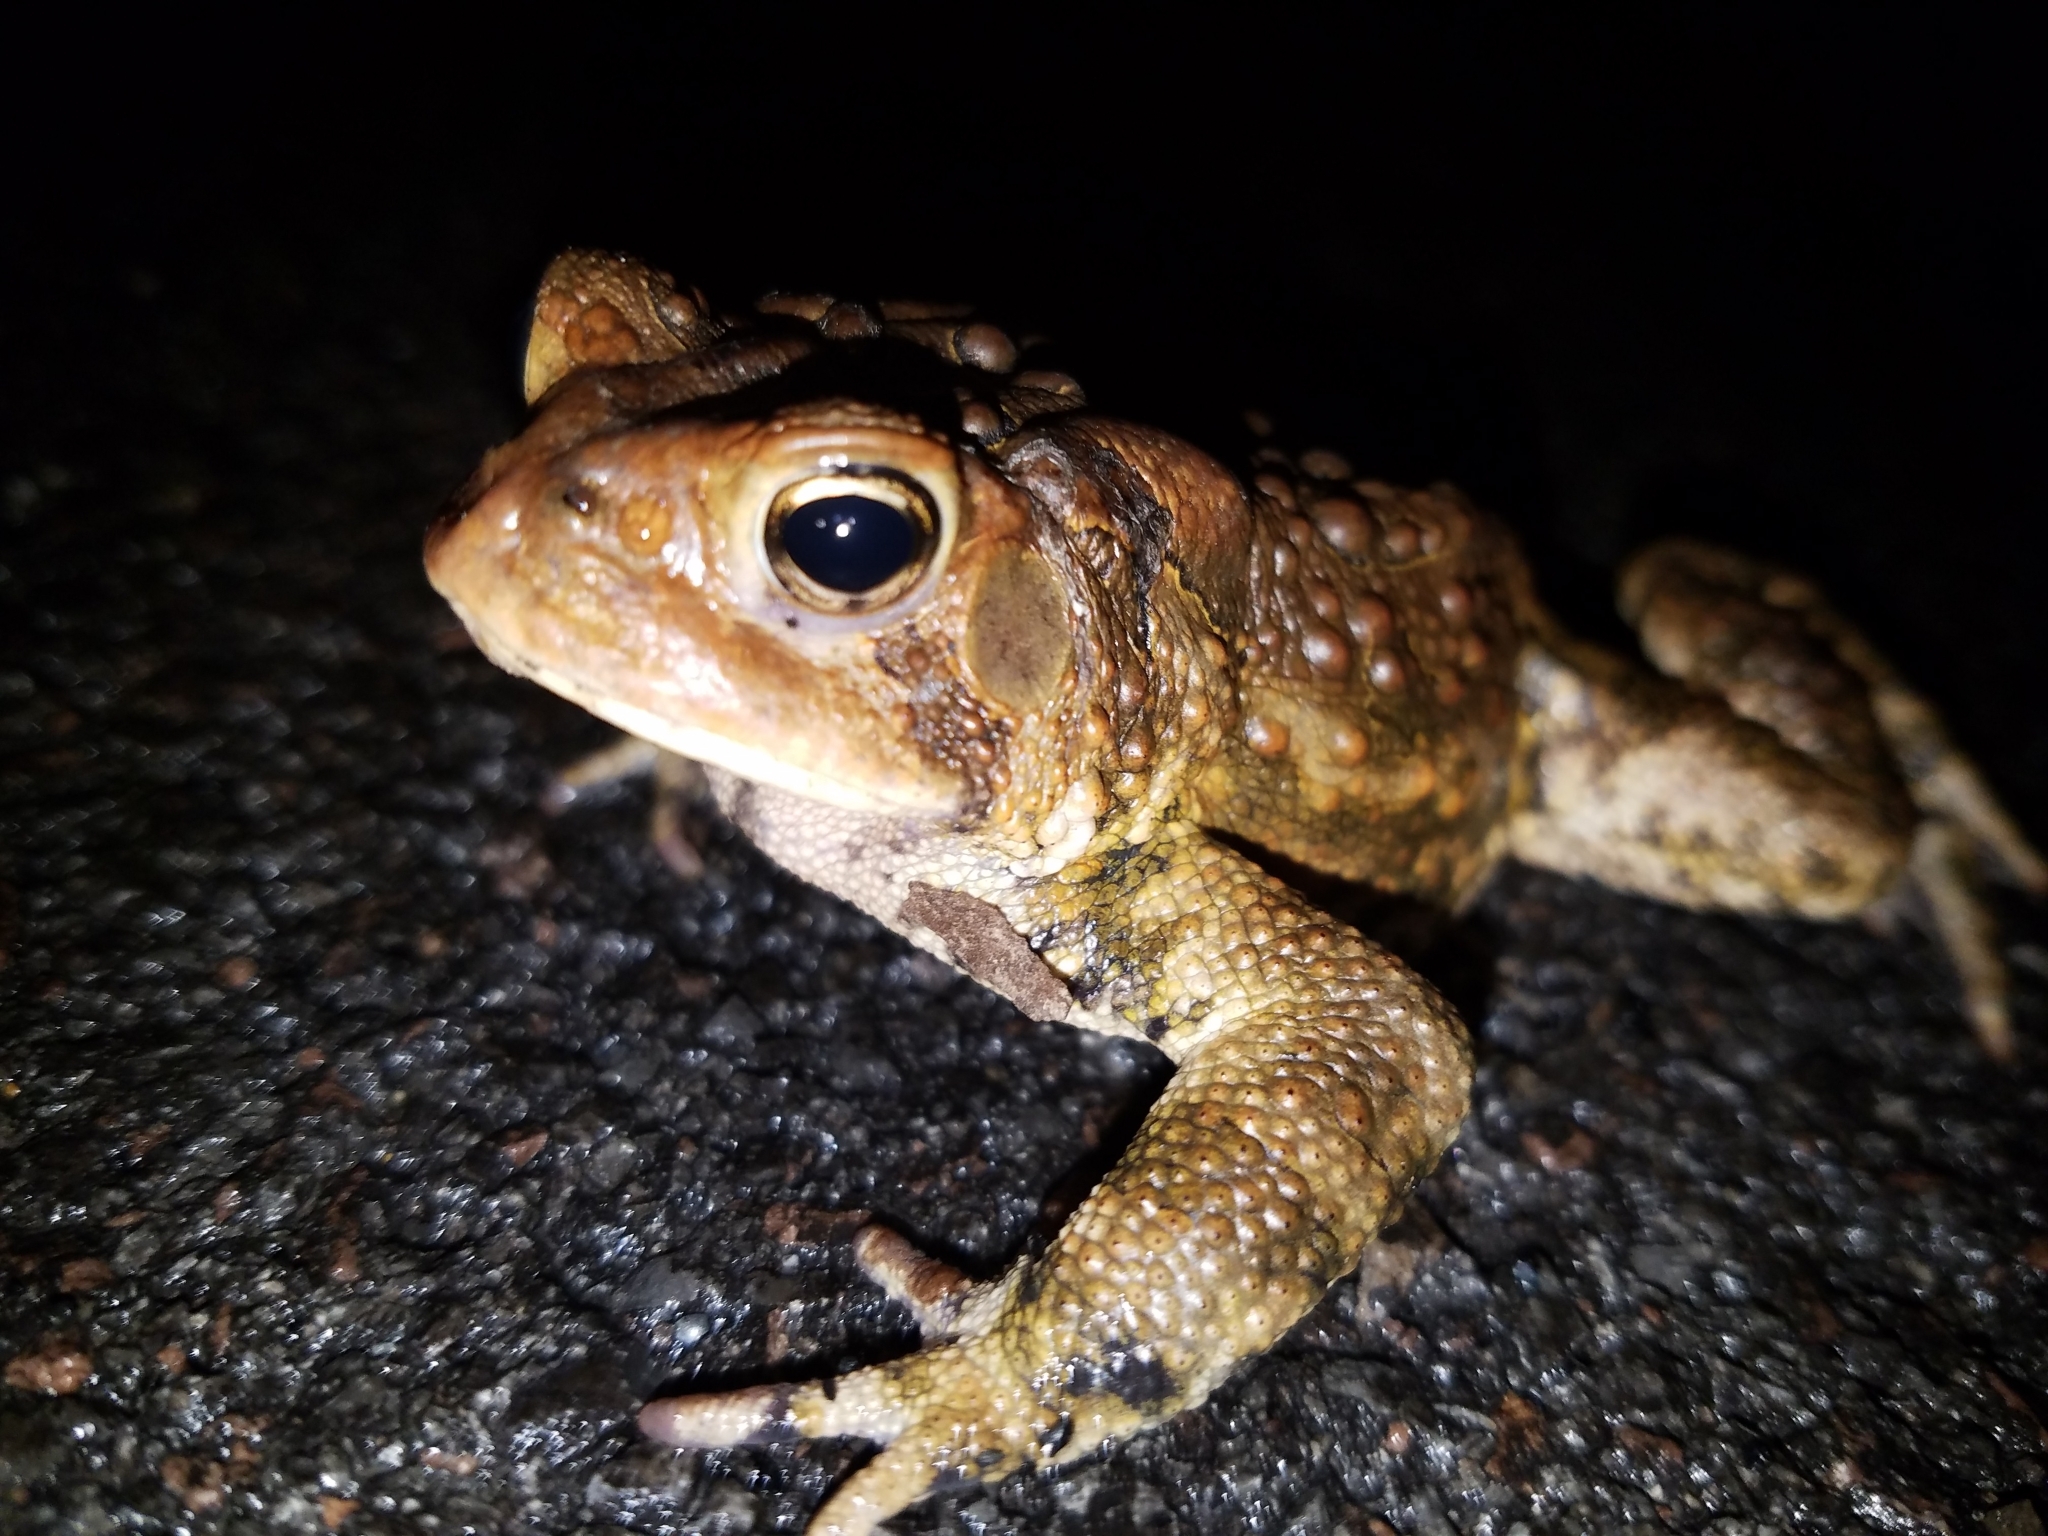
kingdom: Animalia
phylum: Chordata
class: Amphibia
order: Anura
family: Bufonidae
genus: Anaxyrus
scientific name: Anaxyrus americanus
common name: American toad
